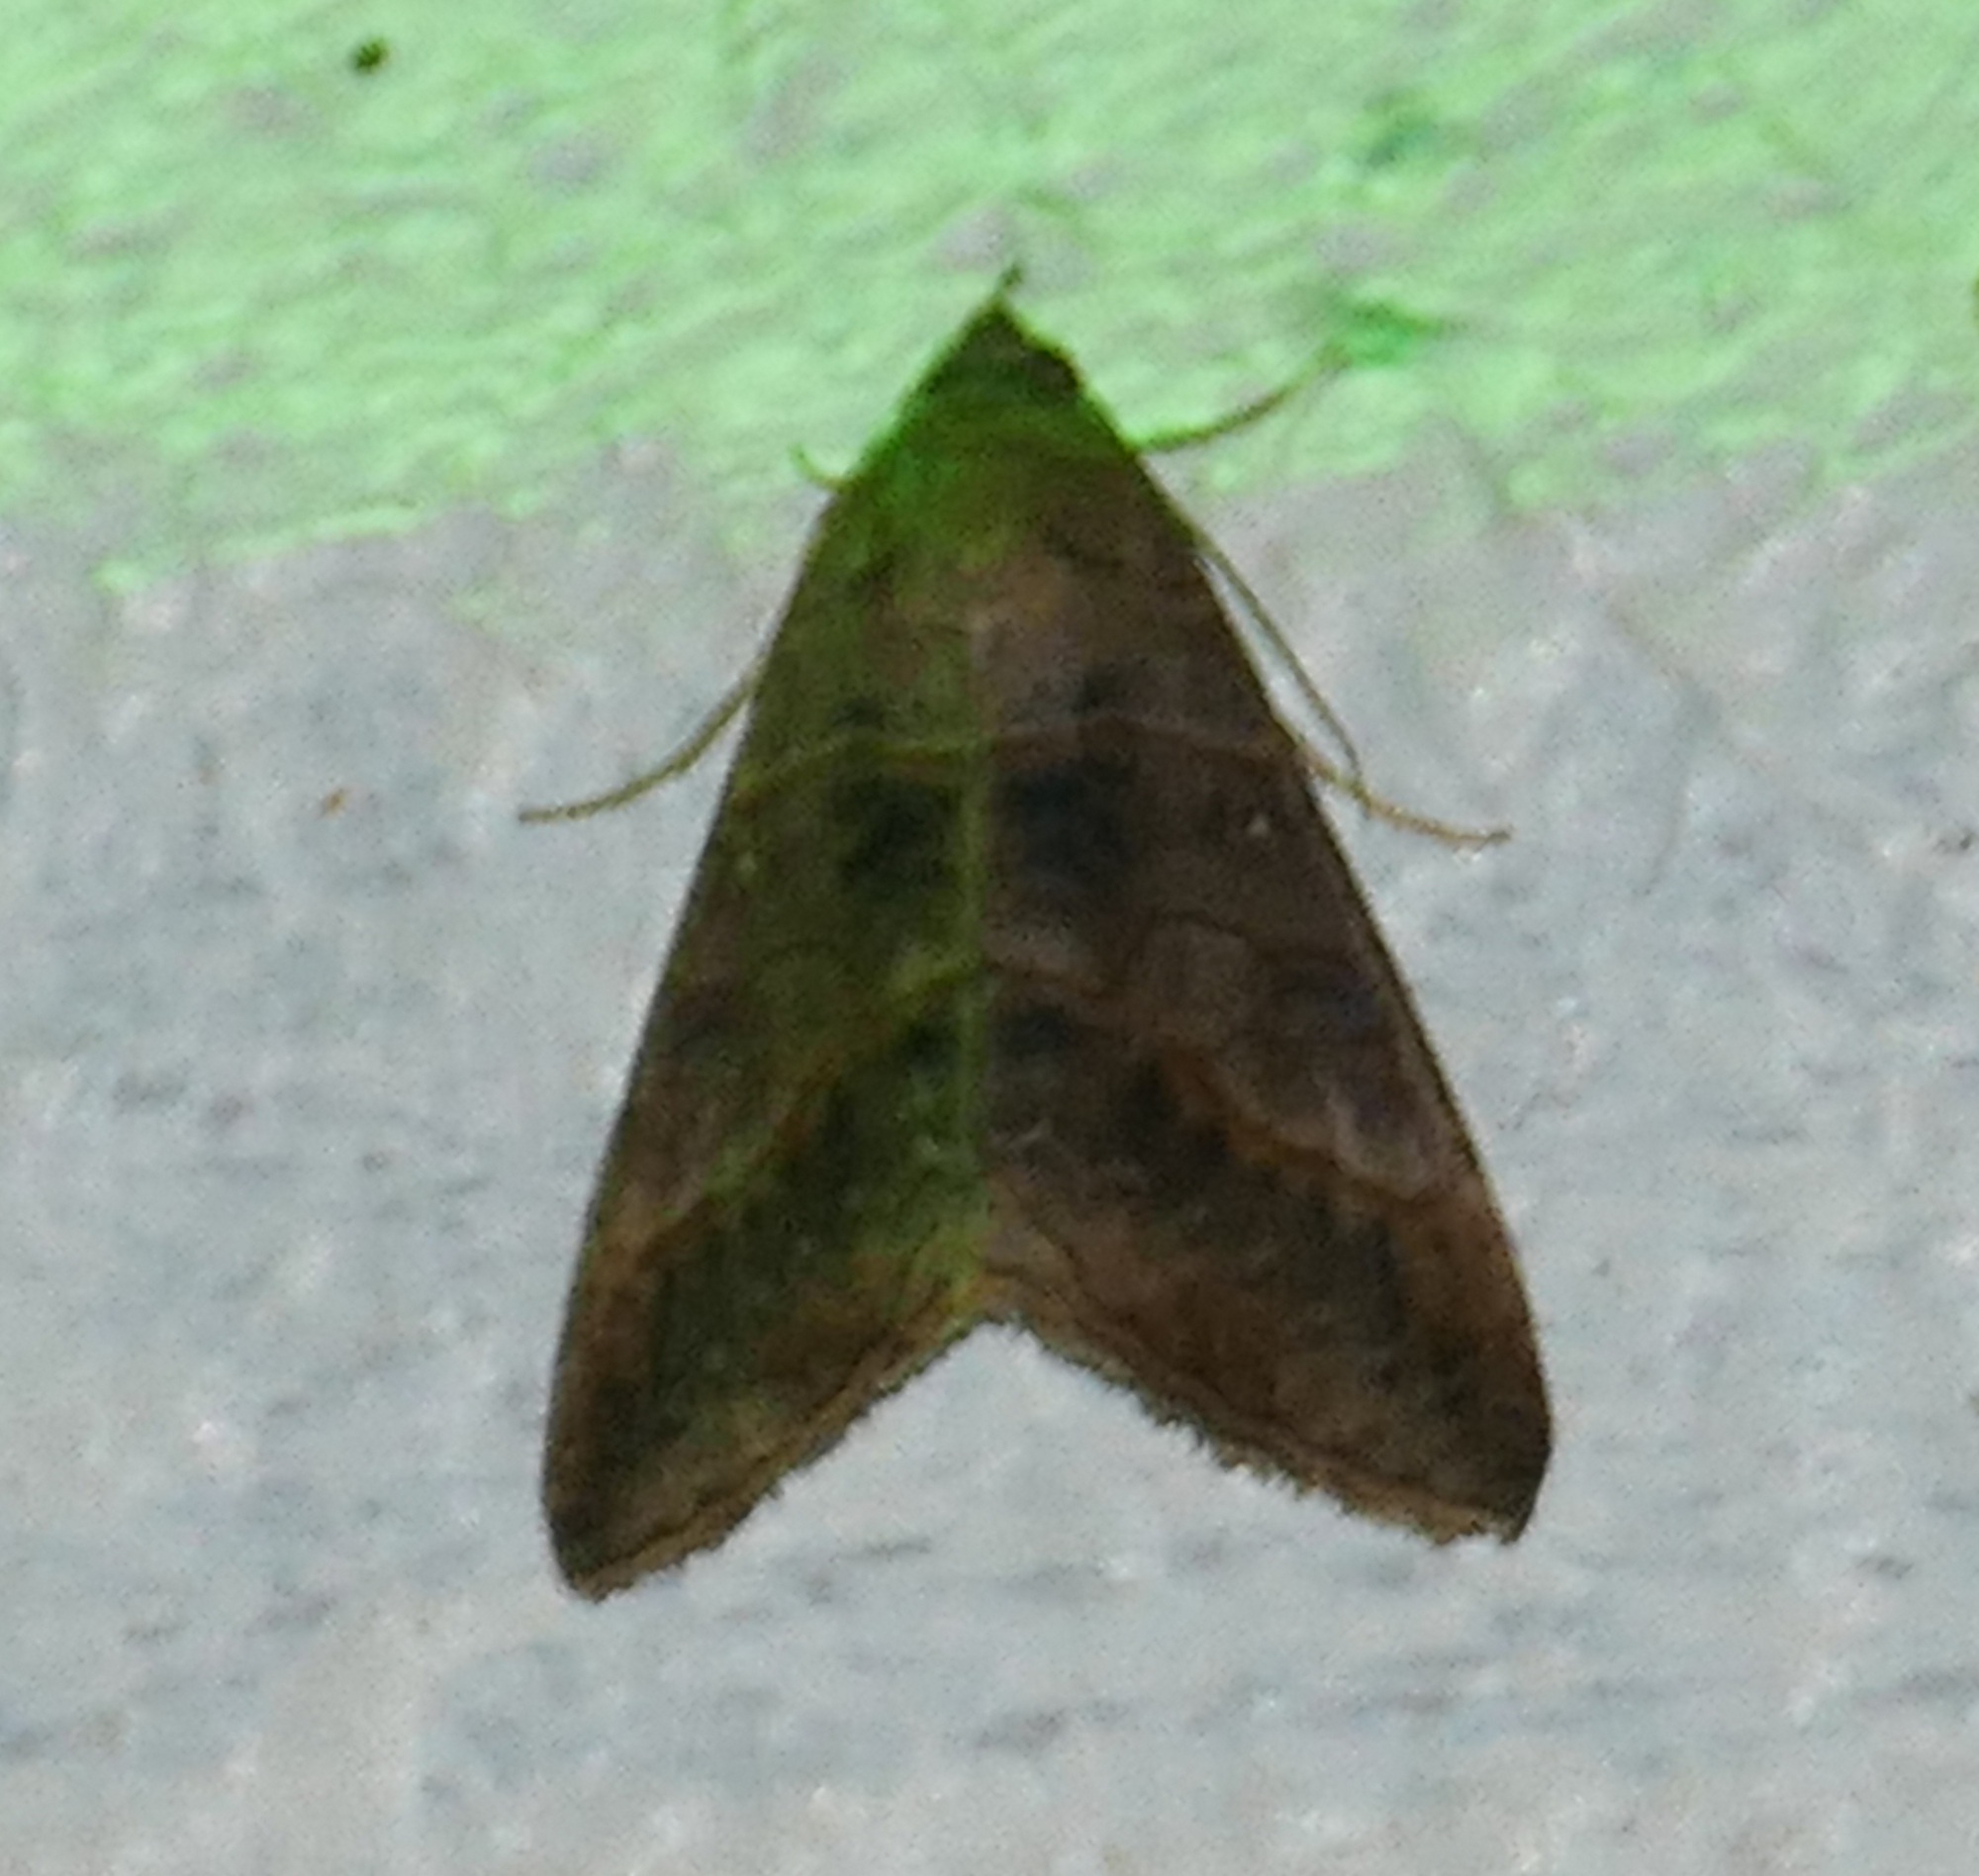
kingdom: Animalia
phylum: Arthropoda
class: Insecta
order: Lepidoptera
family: Erebidae
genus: Mocis
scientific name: Mocis latipes
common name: Striped grass looper
